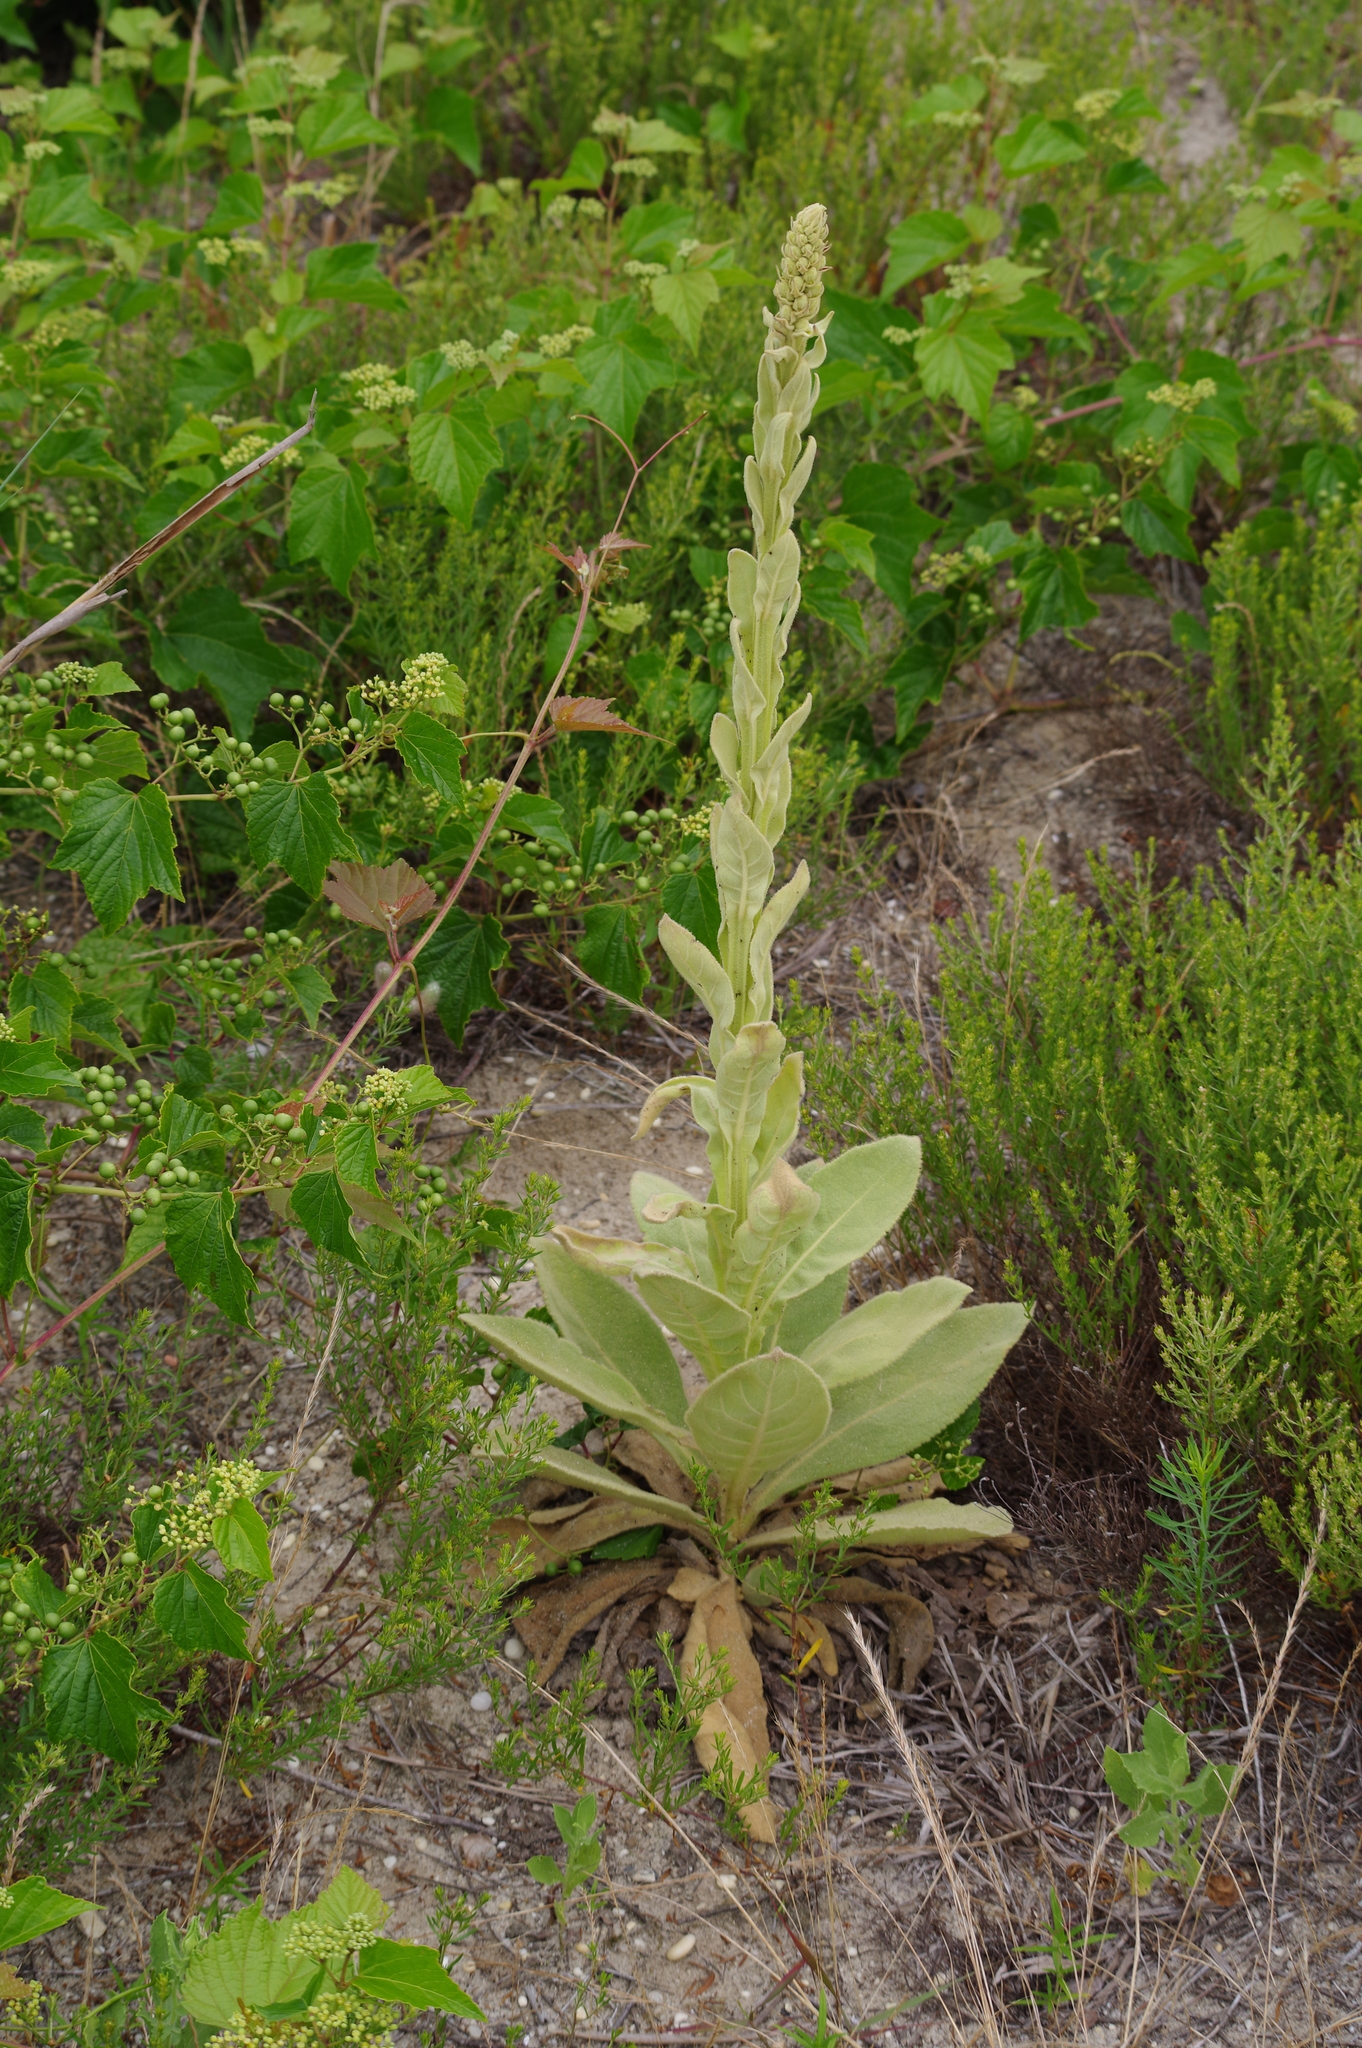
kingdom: Plantae
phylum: Tracheophyta
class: Magnoliopsida
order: Lamiales
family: Scrophulariaceae
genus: Verbascum
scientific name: Verbascum thapsus
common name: Common mullein
